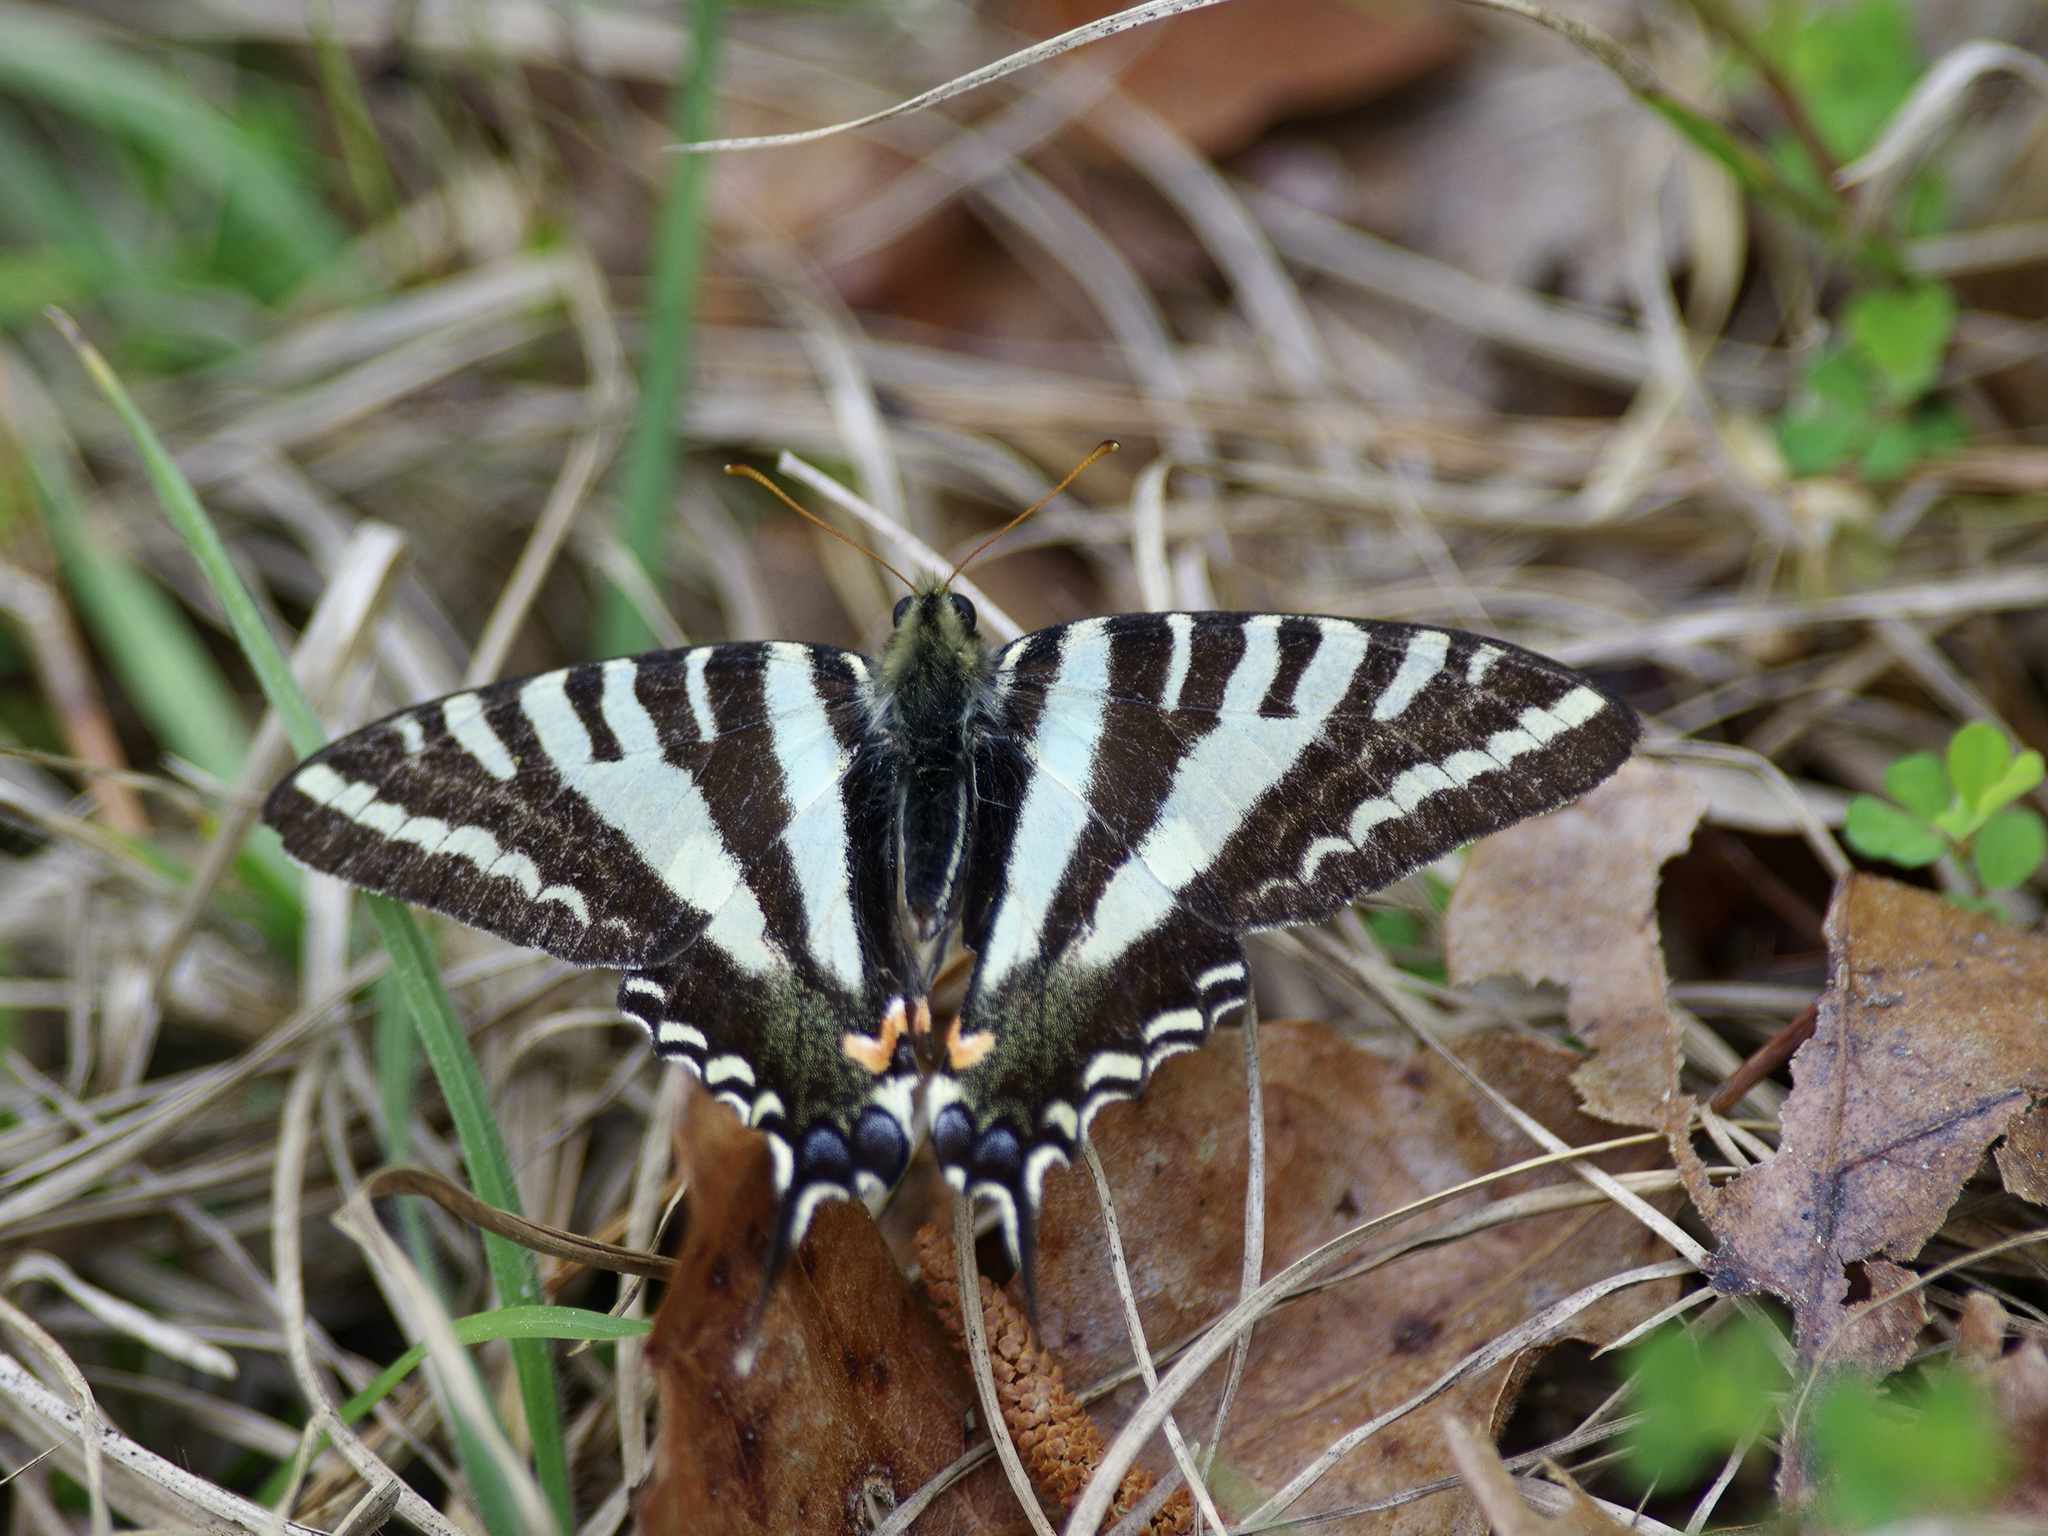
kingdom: Animalia
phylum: Arthropoda
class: Insecta
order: Lepidoptera
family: Papilionidae
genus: Protographium
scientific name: Protographium marcellus
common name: Zebra swallowtail
